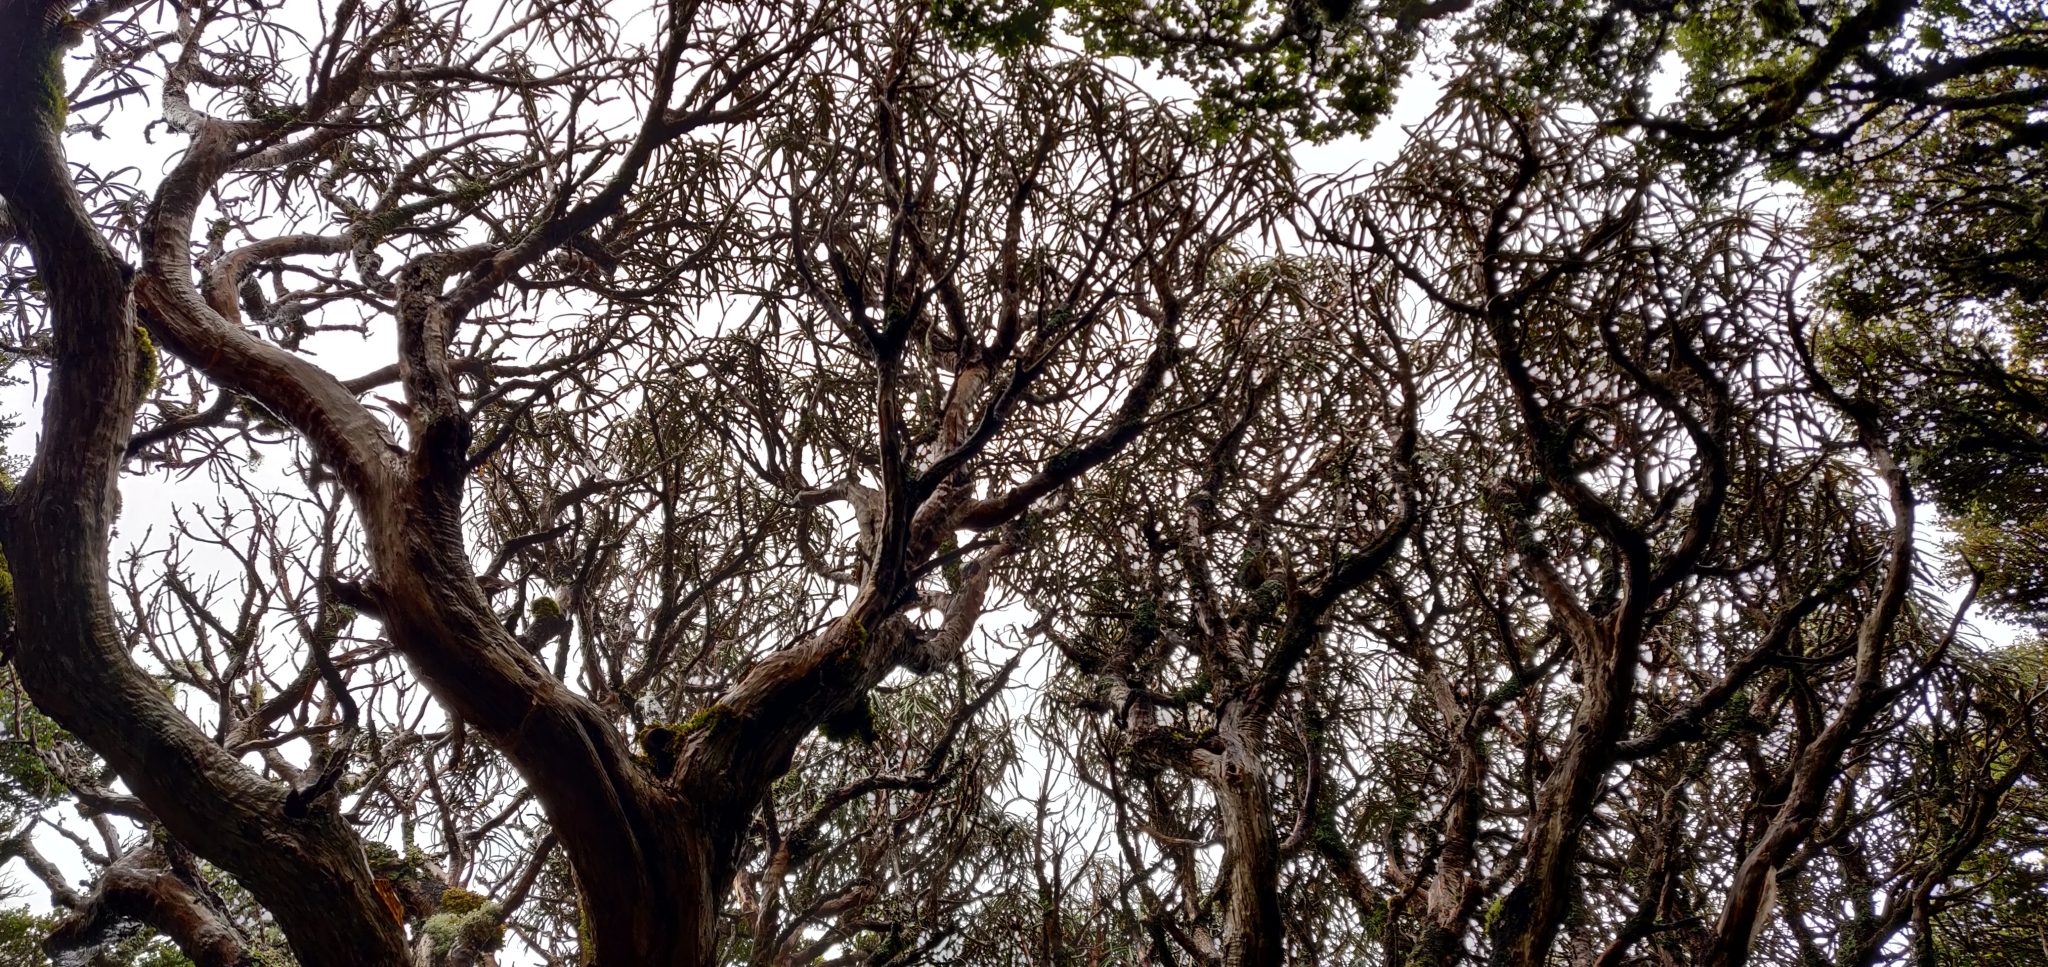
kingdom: Plantae
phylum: Tracheophyta
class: Magnoliopsida
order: Asterales
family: Asteraceae
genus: Olearia
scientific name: Olearia lacunosa
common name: Lancewood tree daisy
